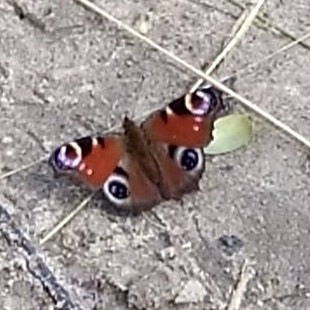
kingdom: Animalia
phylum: Arthropoda
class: Insecta
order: Lepidoptera
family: Nymphalidae
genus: Aglais
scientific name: Aglais io
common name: Peacock
